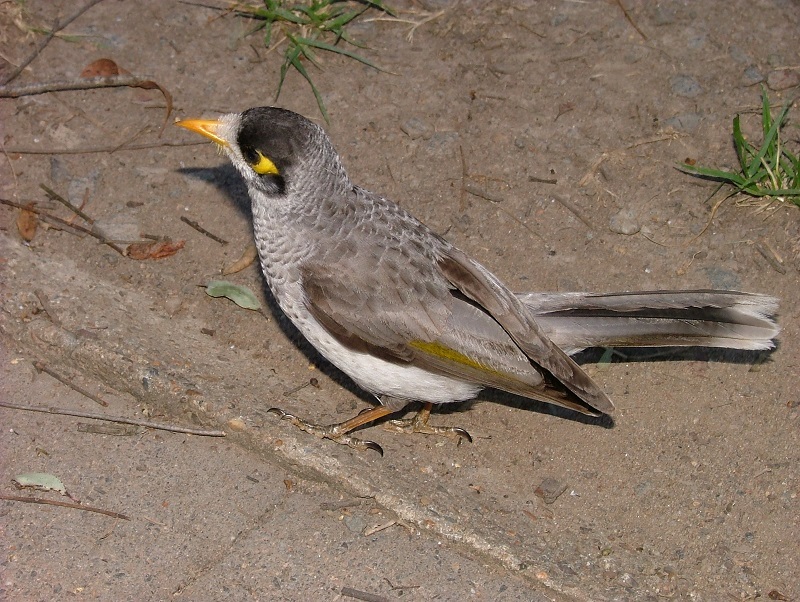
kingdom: Animalia
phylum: Chordata
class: Aves
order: Passeriformes
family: Meliphagidae
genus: Manorina
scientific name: Manorina melanocephala
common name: Noisy miner
